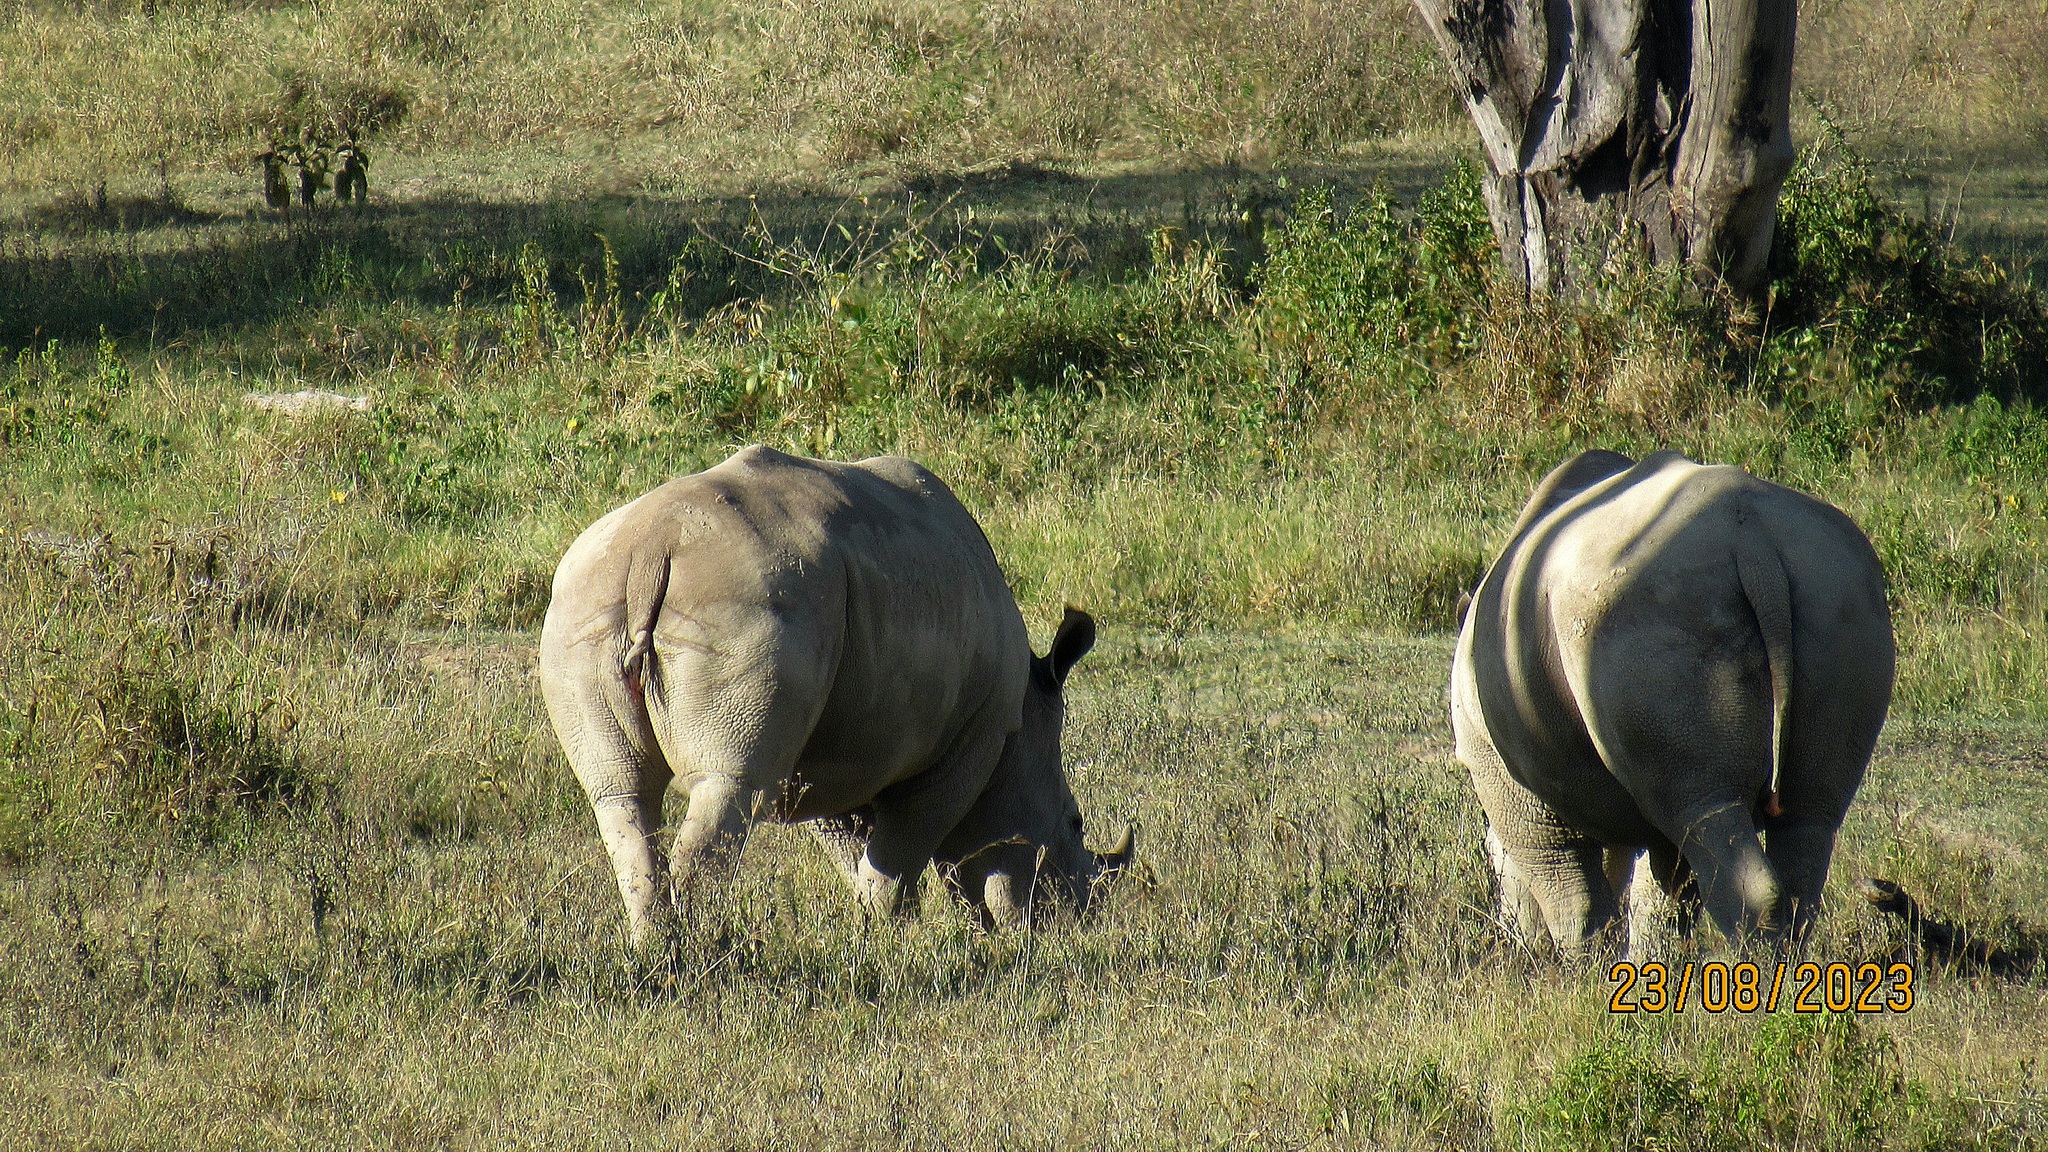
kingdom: Animalia
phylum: Chordata
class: Mammalia
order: Perissodactyla
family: Rhinocerotidae
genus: Ceratotherium
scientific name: Ceratotherium simum
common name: White rhinoceros
